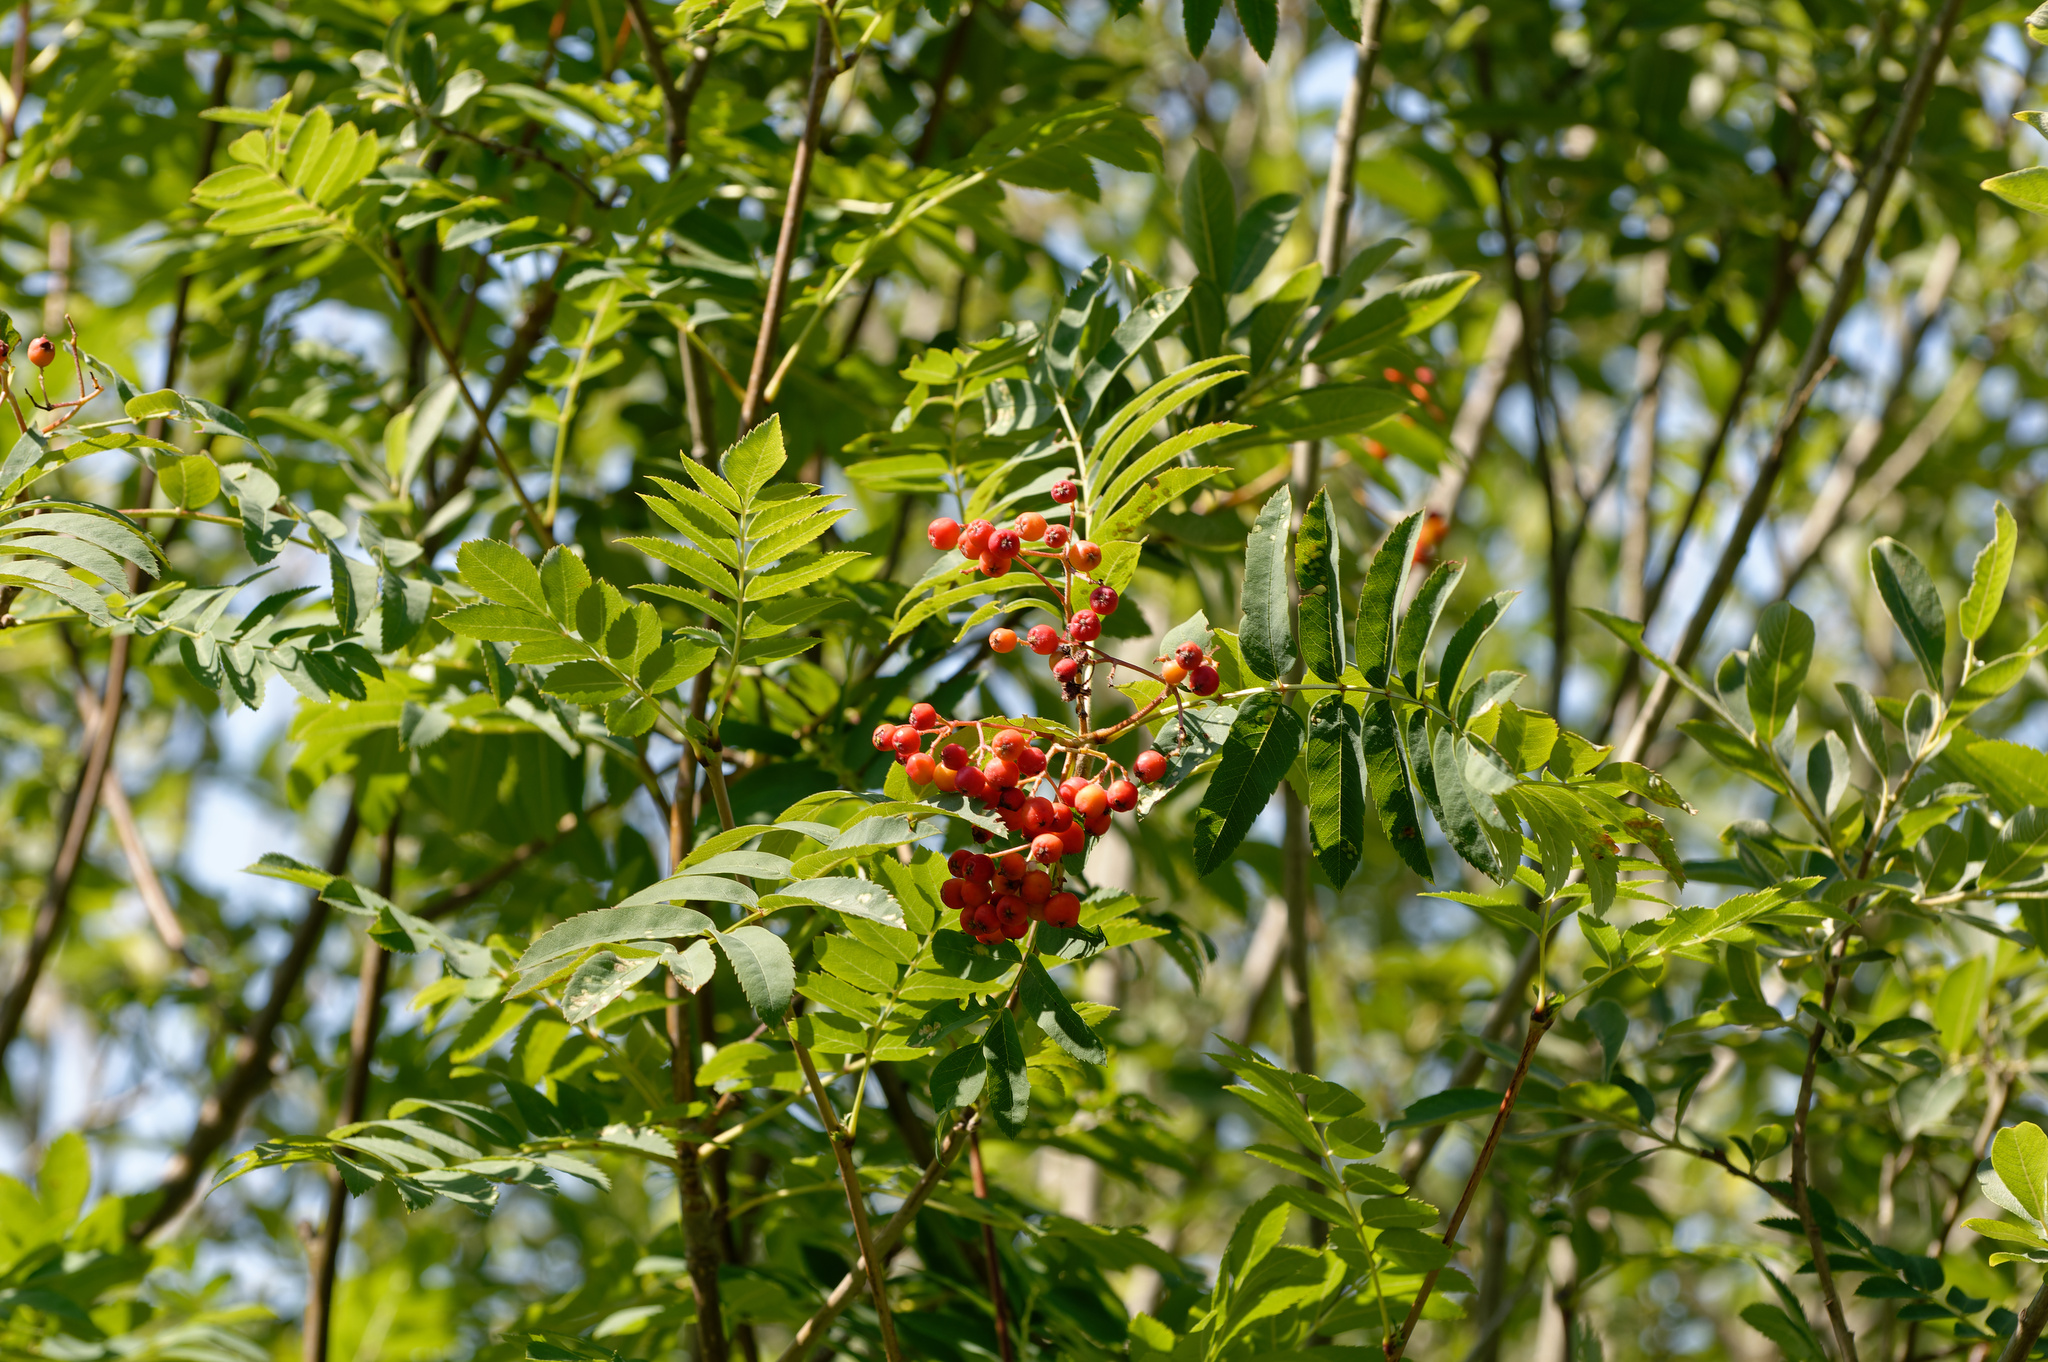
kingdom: Plantae
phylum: Tracheophyta
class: Magnoliopsida
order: Rosales
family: Rosaceae
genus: Sorbus
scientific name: Sorbus aucuparia
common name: Rowan
